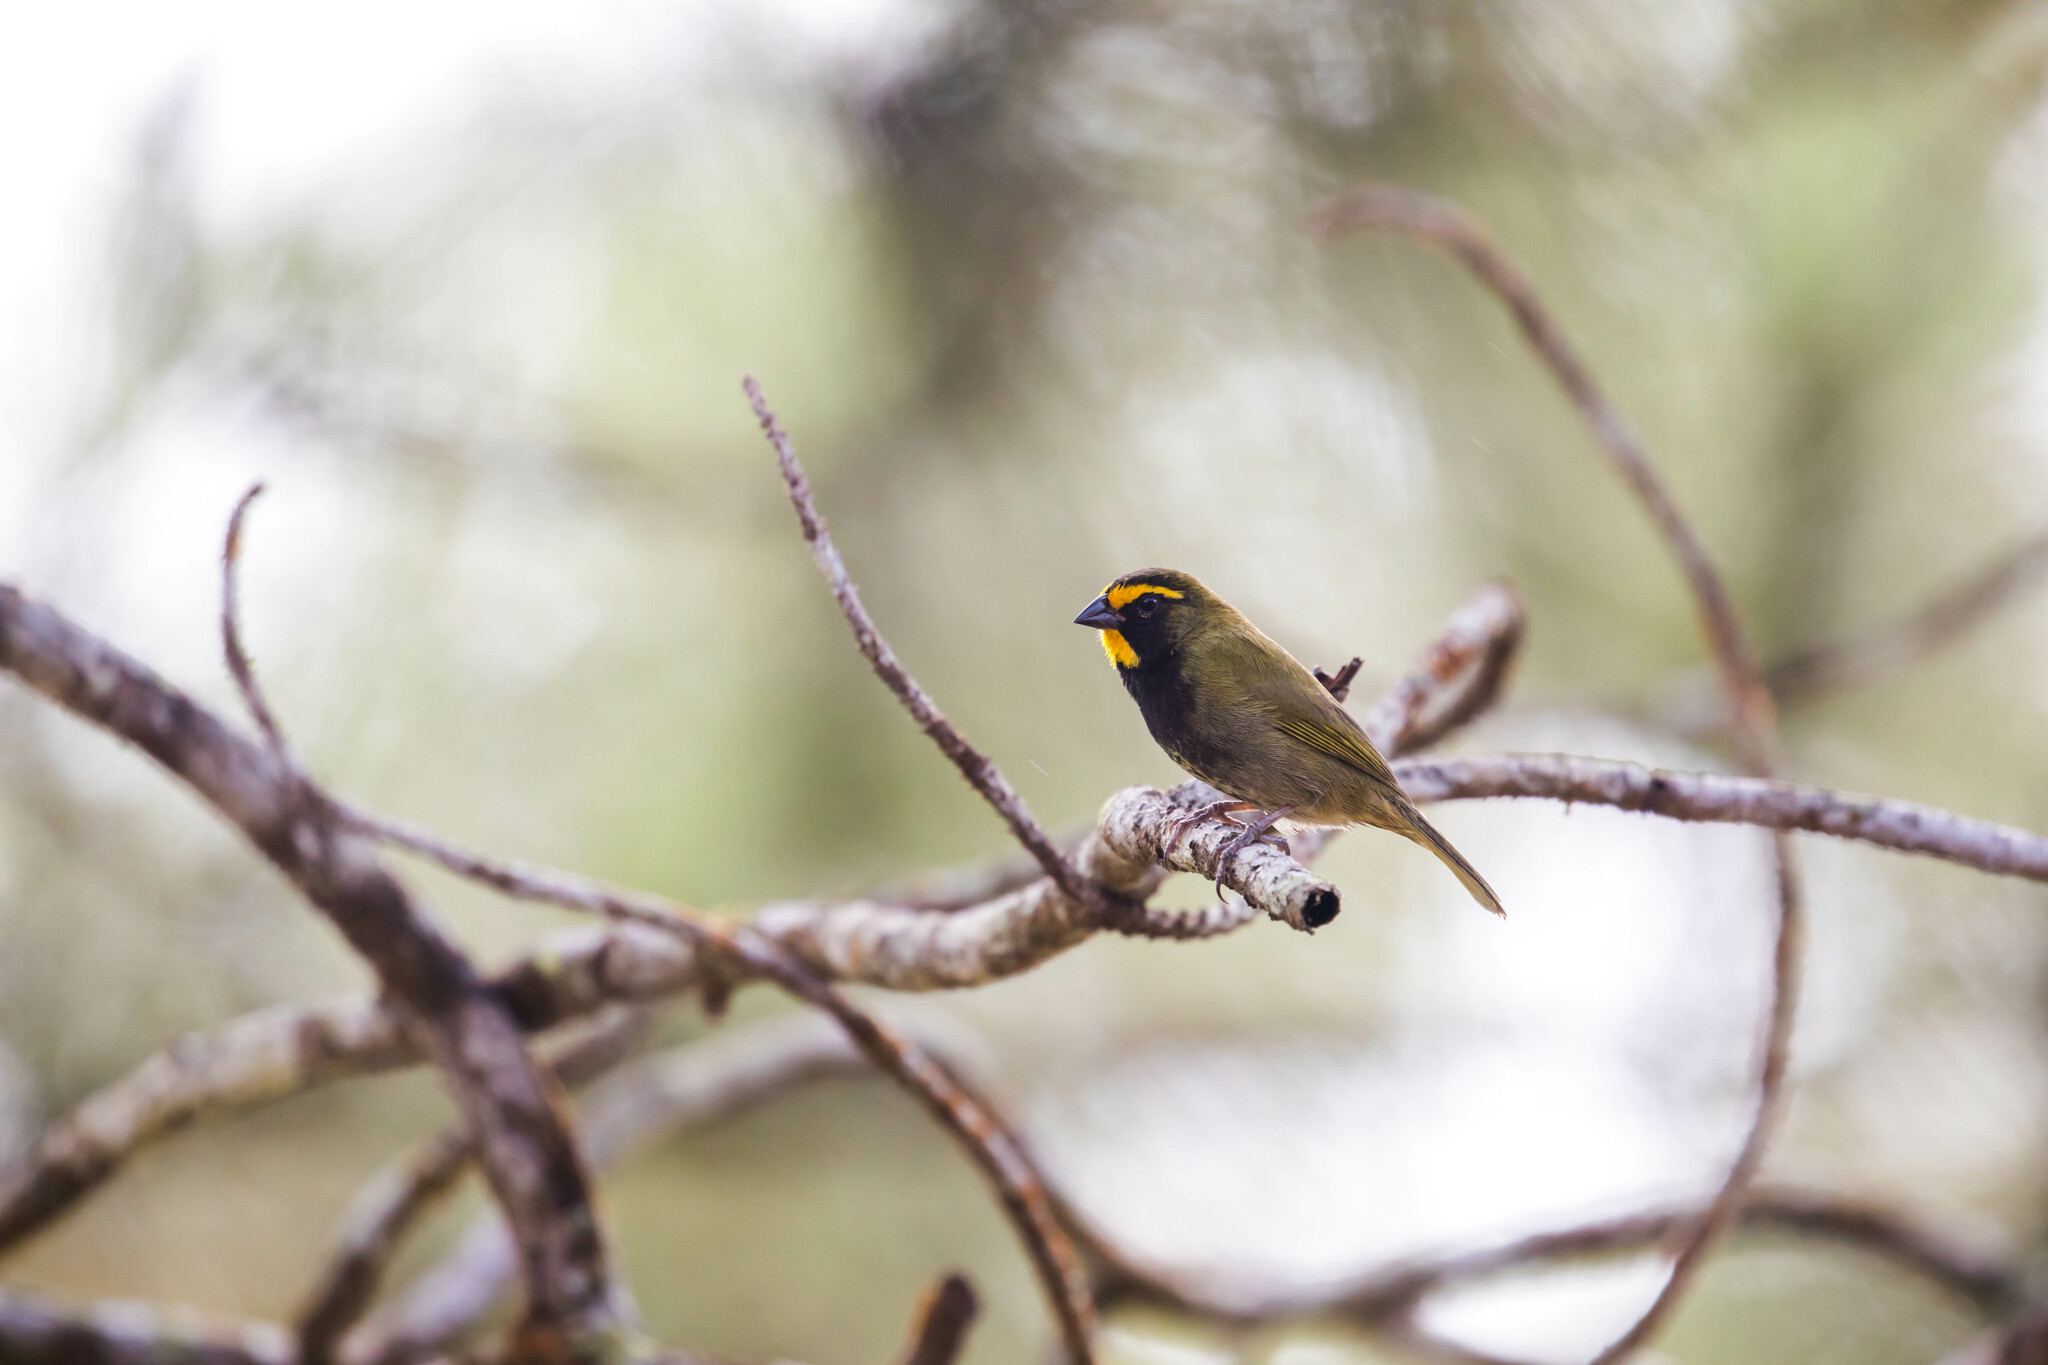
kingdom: Animalia
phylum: Chordata
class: Aves
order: Passeriformes
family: Thraupidae
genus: Tiaris
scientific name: Tiaris olivaceus
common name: Yellow-faced grassquit
